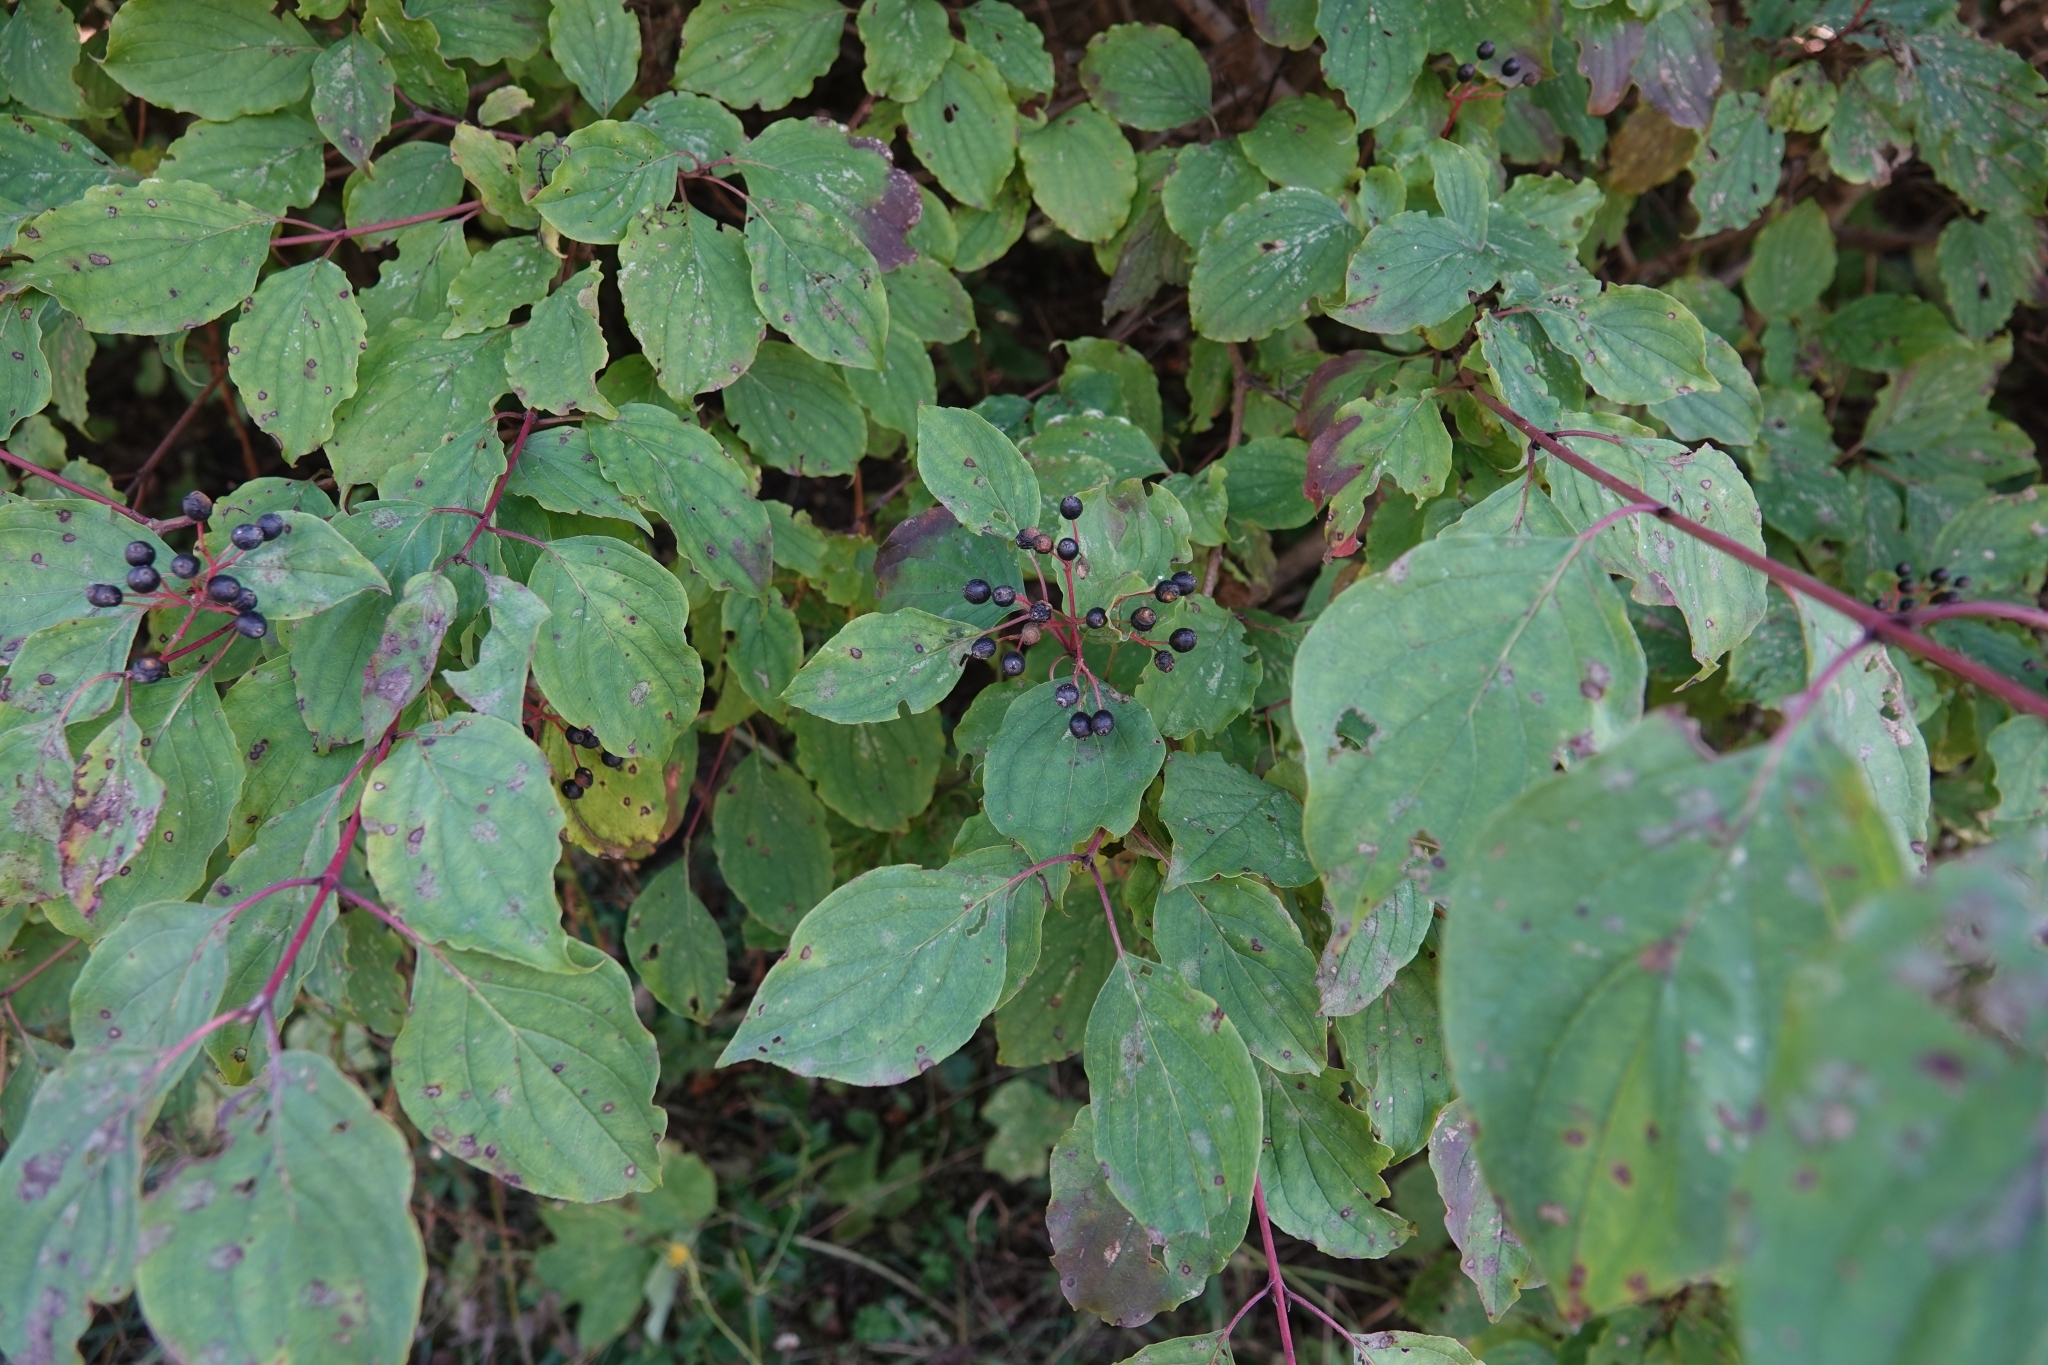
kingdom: Plantae
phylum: Tracheophyta
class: Magnoliopsida
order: Cornales
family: Cornaceae
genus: Cornus
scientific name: Cornus sanguinea
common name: Dogwood
